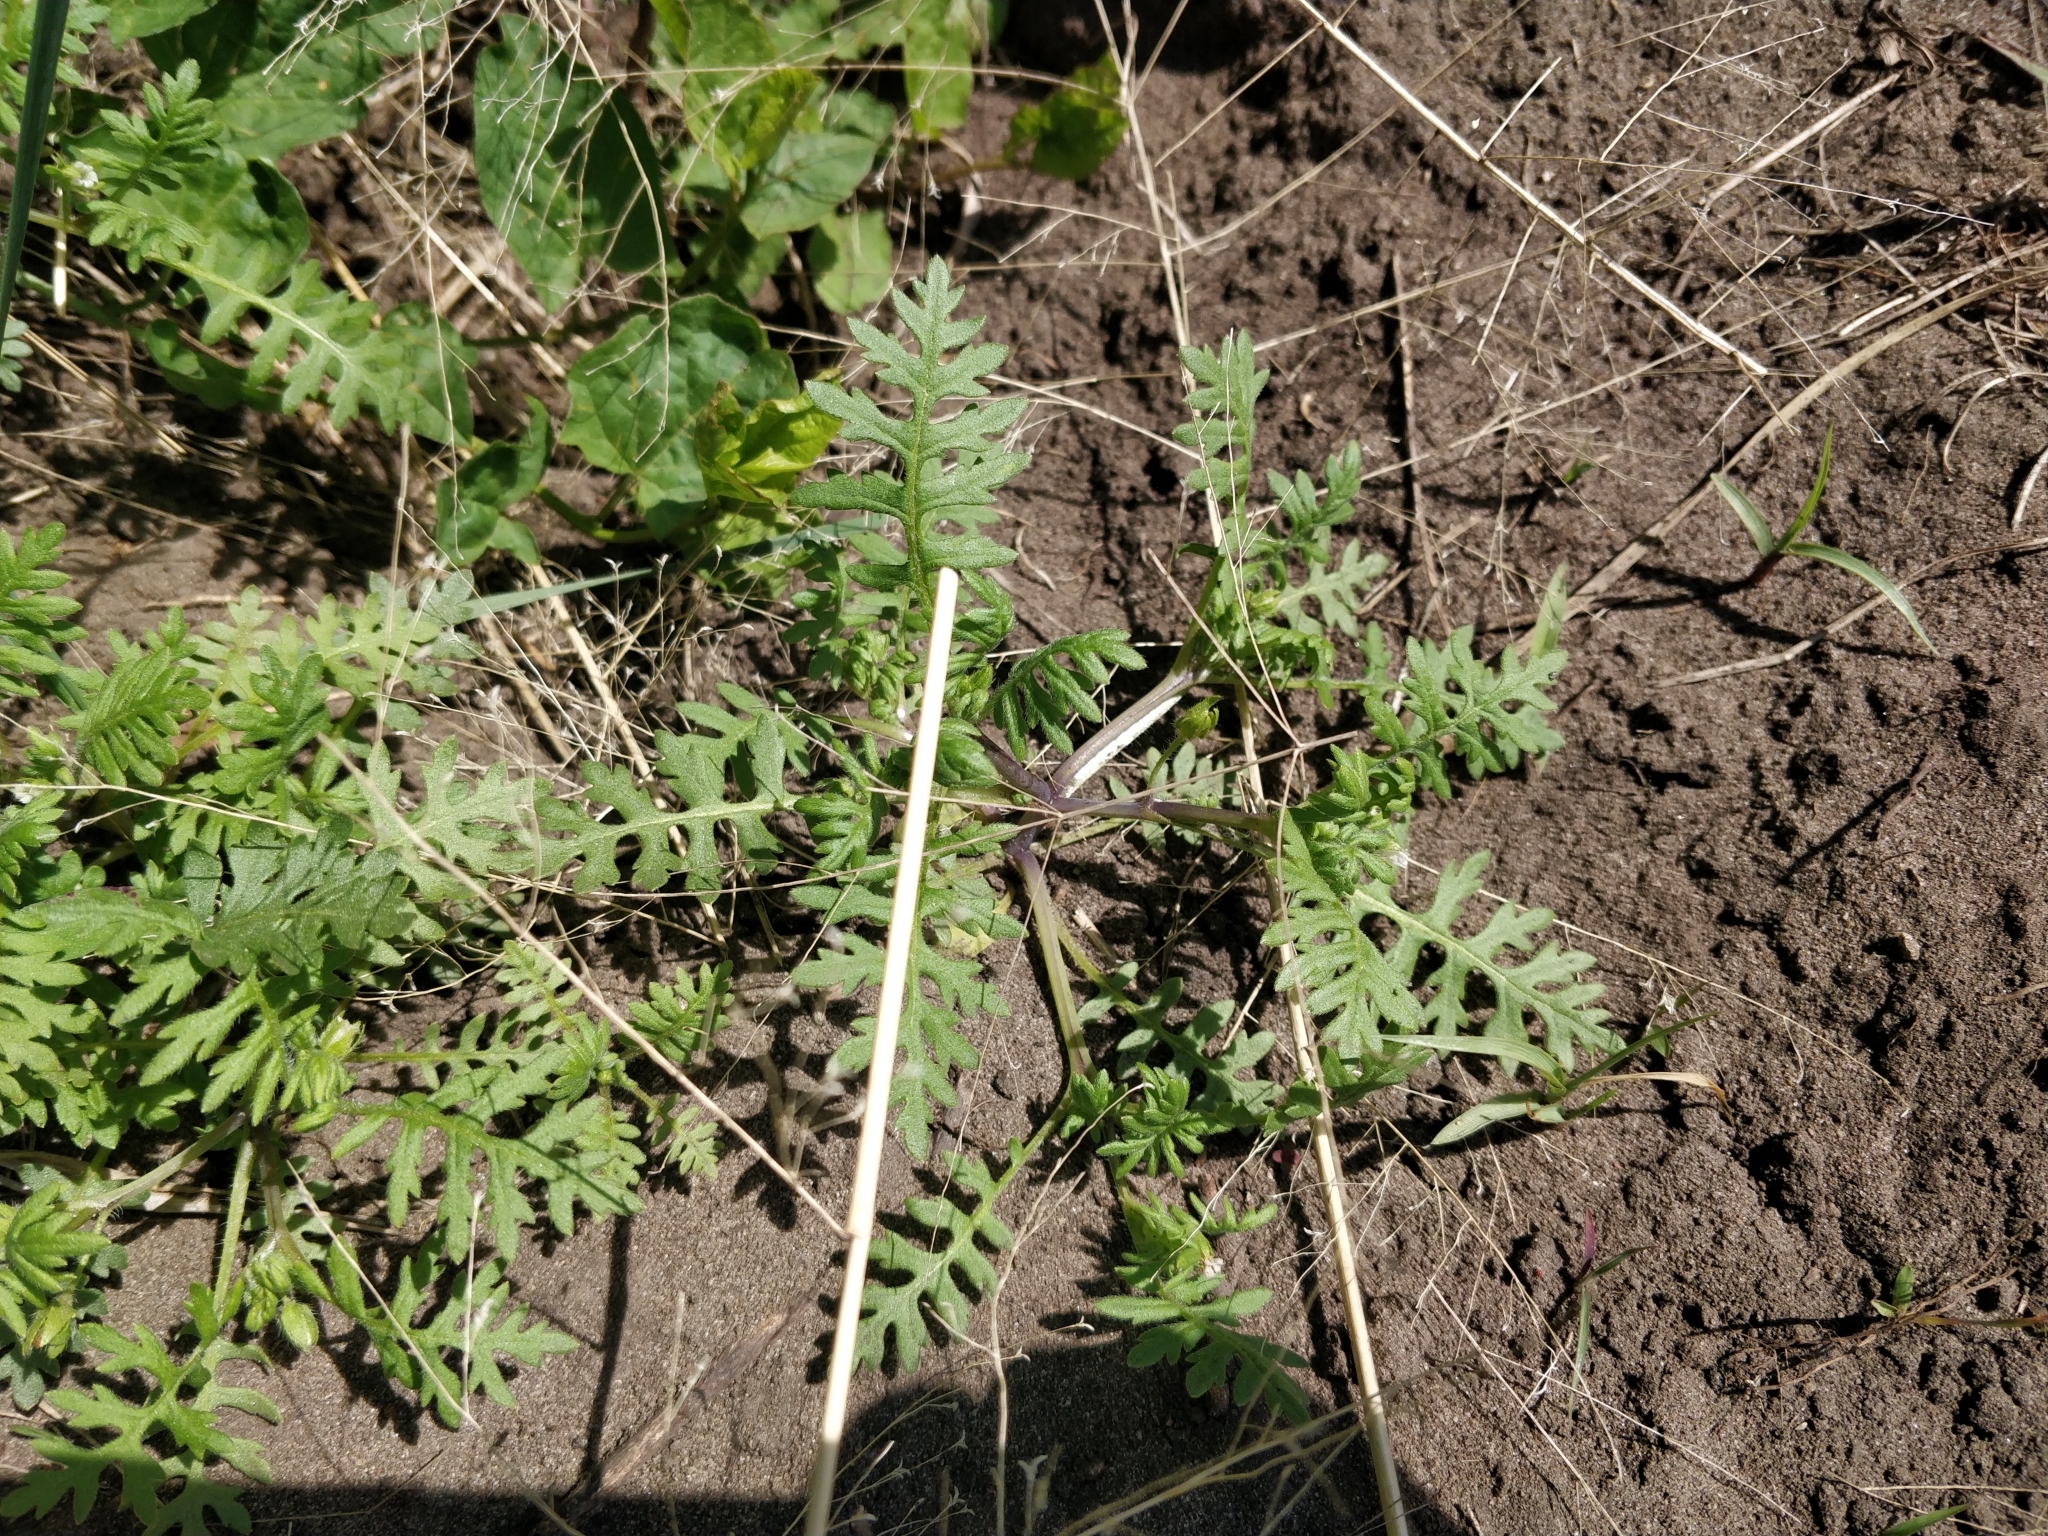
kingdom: Plantae
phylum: Tracheophyta
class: Magnoliopsida
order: Boraginales
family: Hydrophyllaceae
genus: Ellisia
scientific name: Ellisia nyctelea
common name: Aunt lucy
